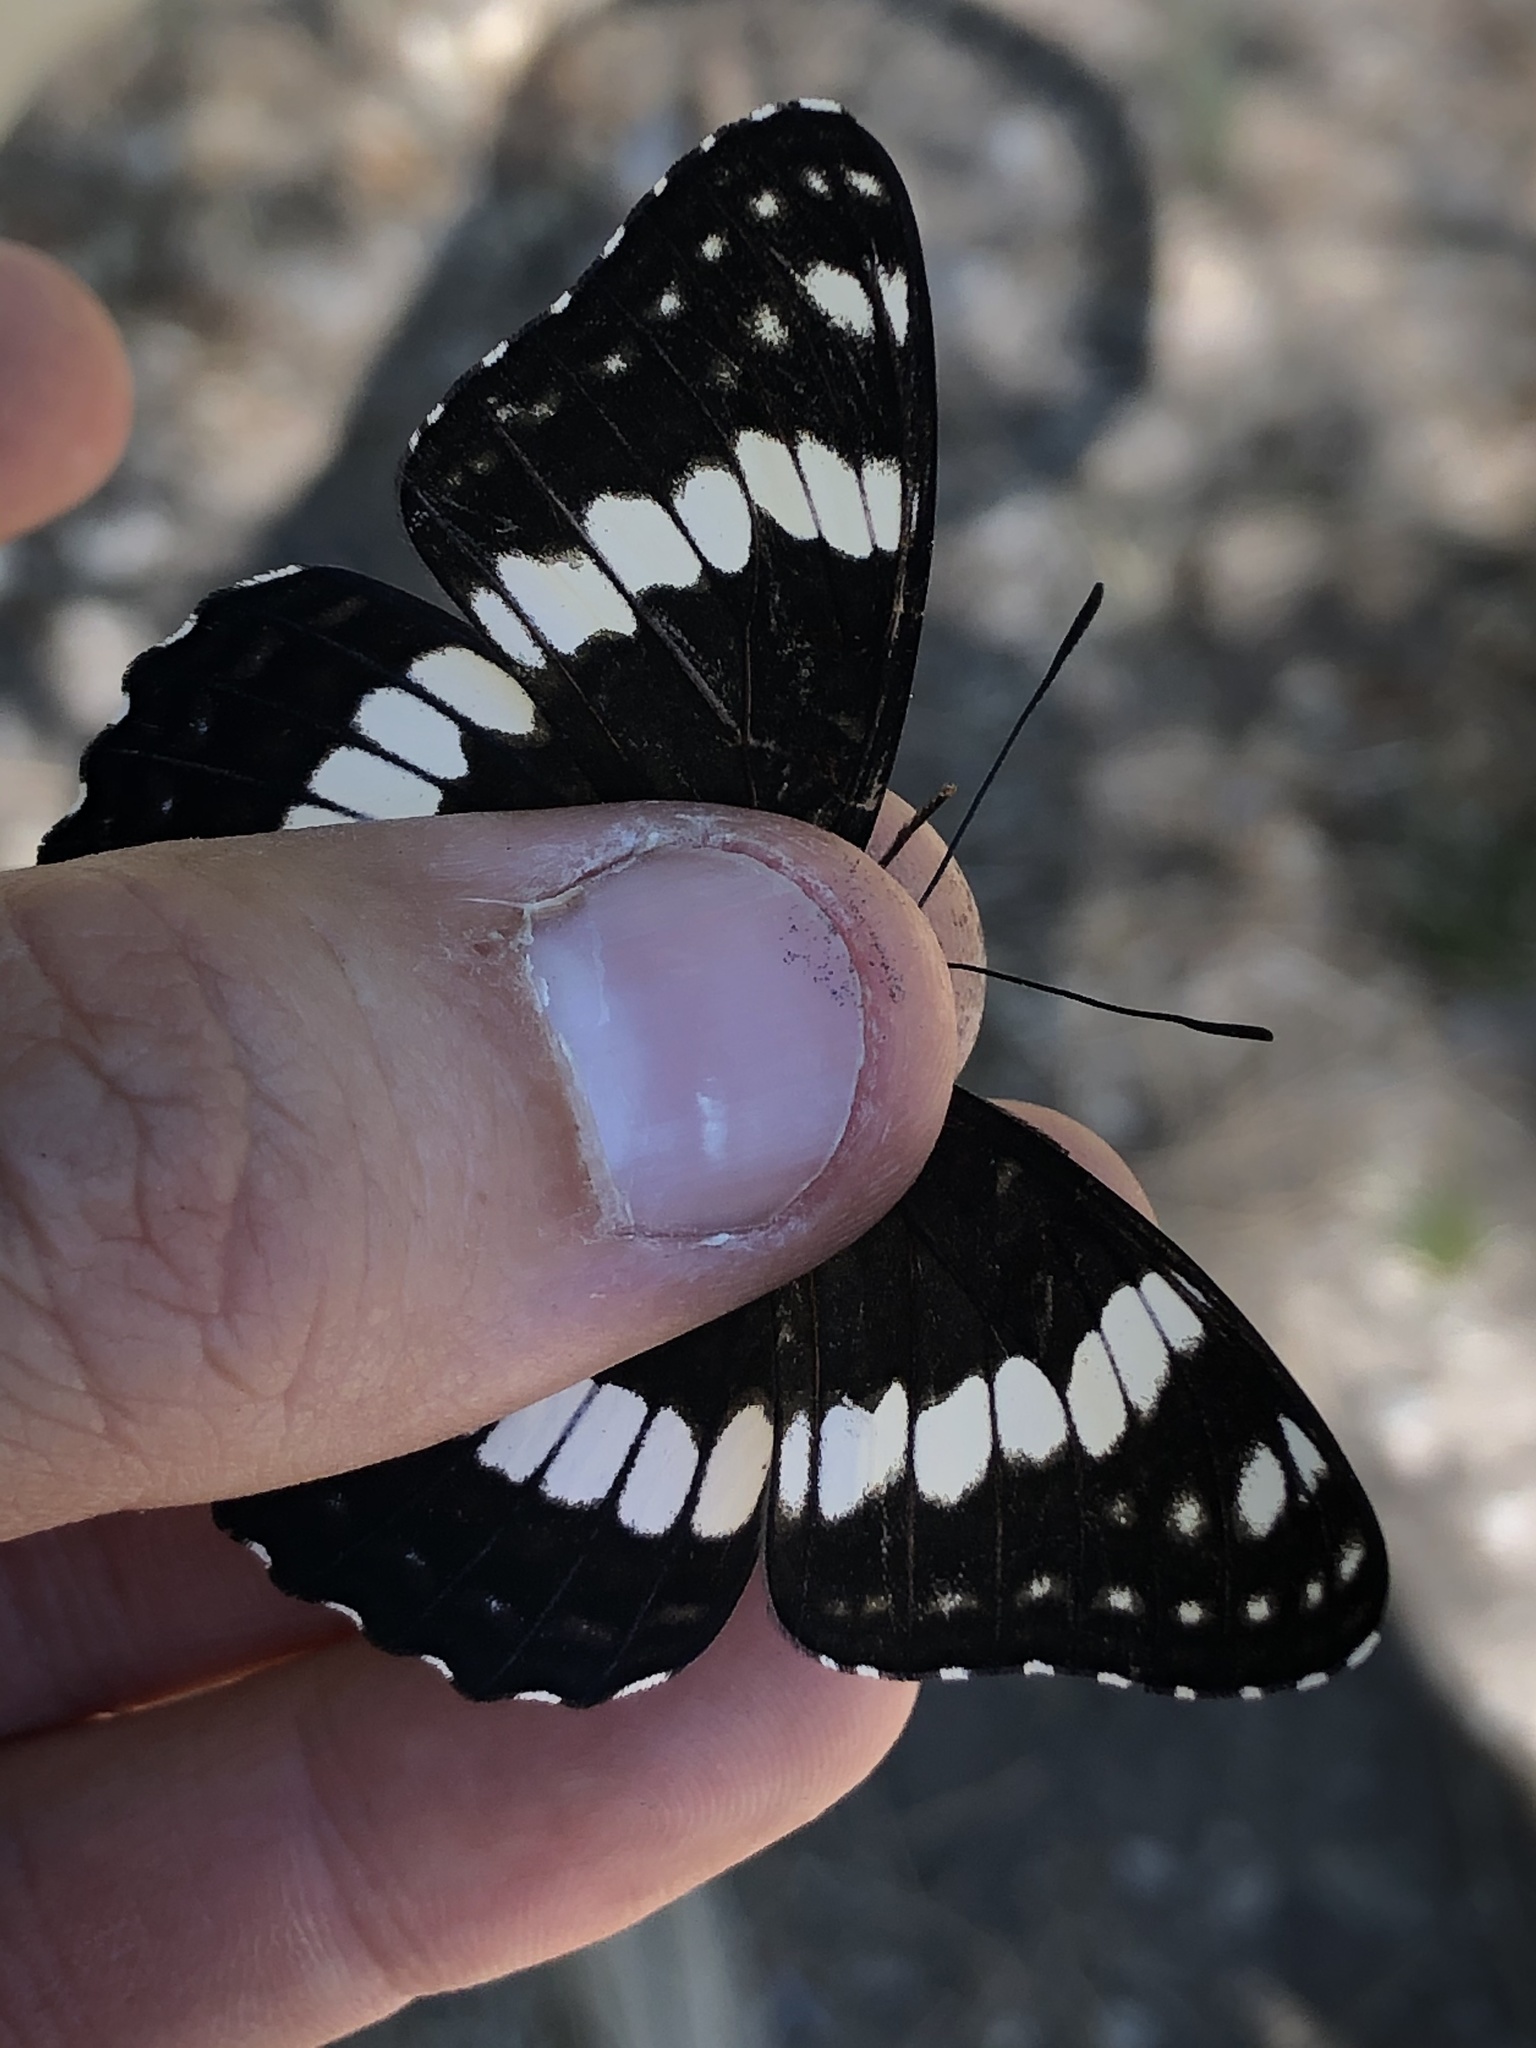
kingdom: Animalia
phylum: Arthropoda
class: Insecta
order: Lepidoptera
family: Nymphalidae
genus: Limenitis
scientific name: Limenitis weidemeyerii
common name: Weidemeyer's admiral
